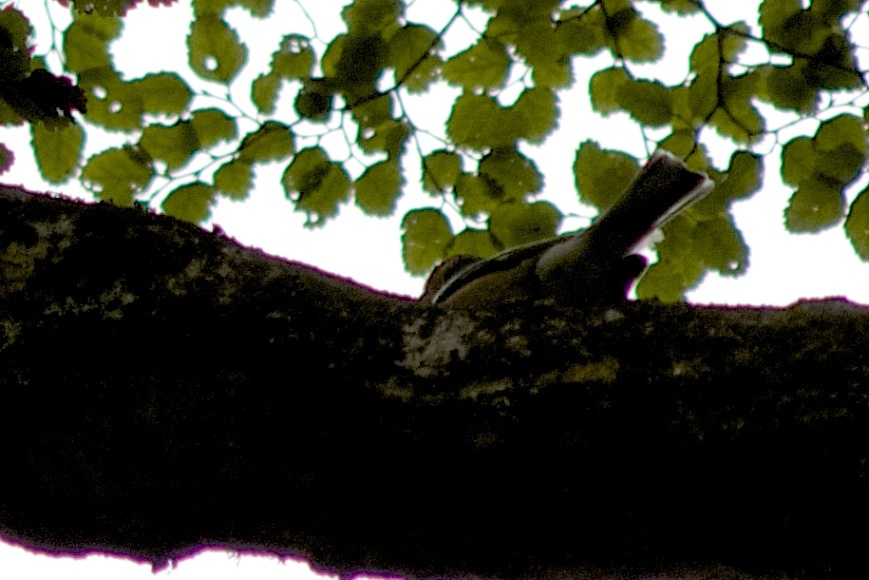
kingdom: Animalia
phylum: Chordata
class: Aves
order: Passeriformes
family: Fringillidae
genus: Fringilla
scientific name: Fringilla coelebs
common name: Common chaffinch
